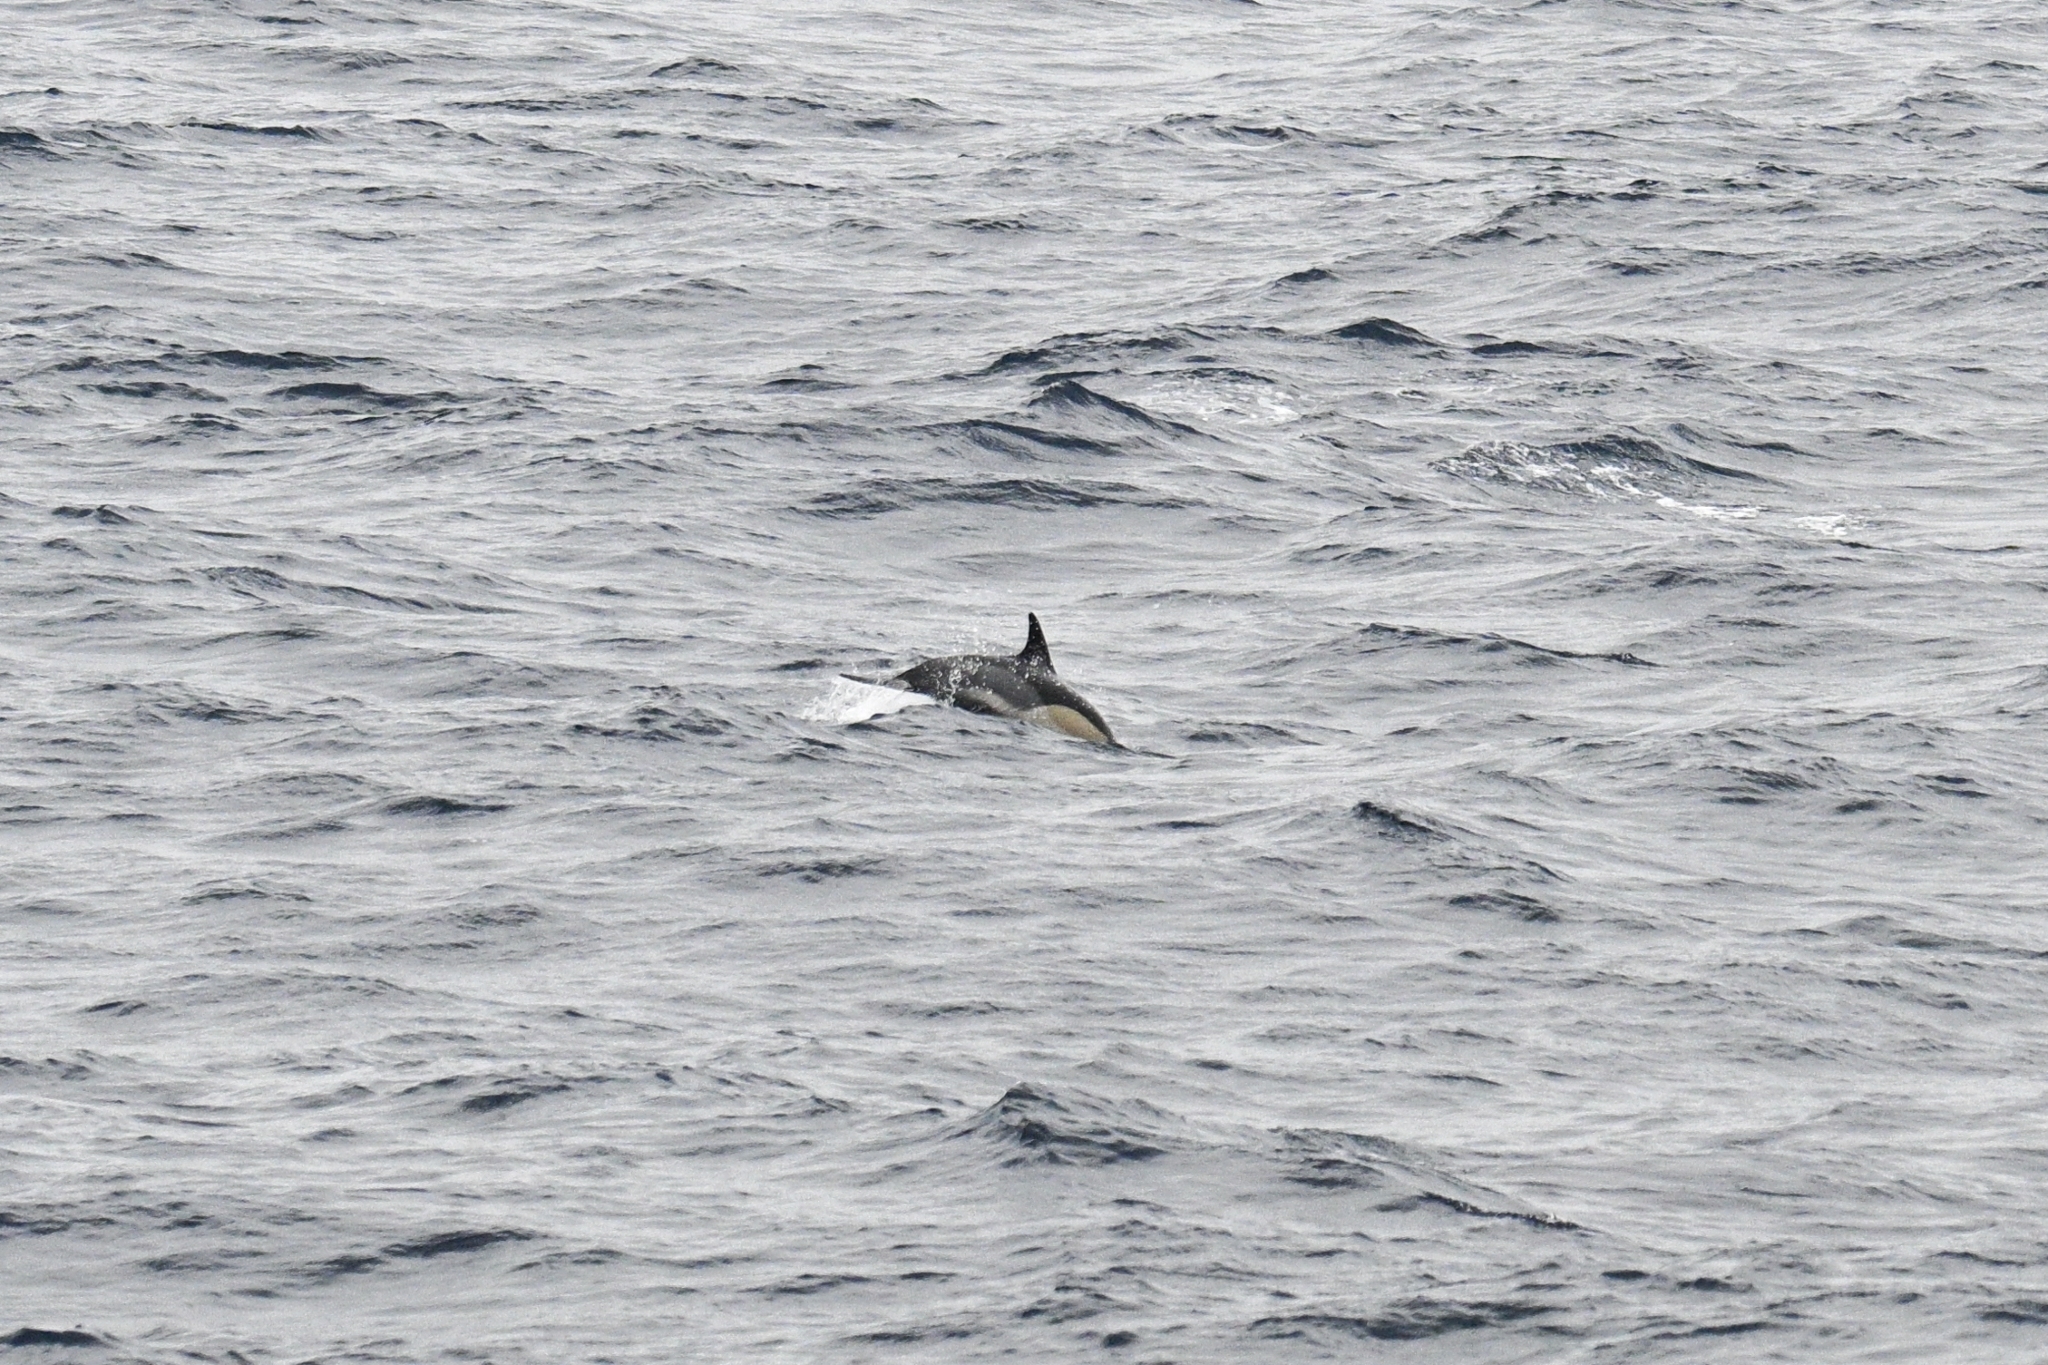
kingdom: Animalia
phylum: Chordata
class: Mammalia
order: Cetacea
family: Delphinidae
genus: Delphinus
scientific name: Delphinus delphis
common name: Common dolphin
